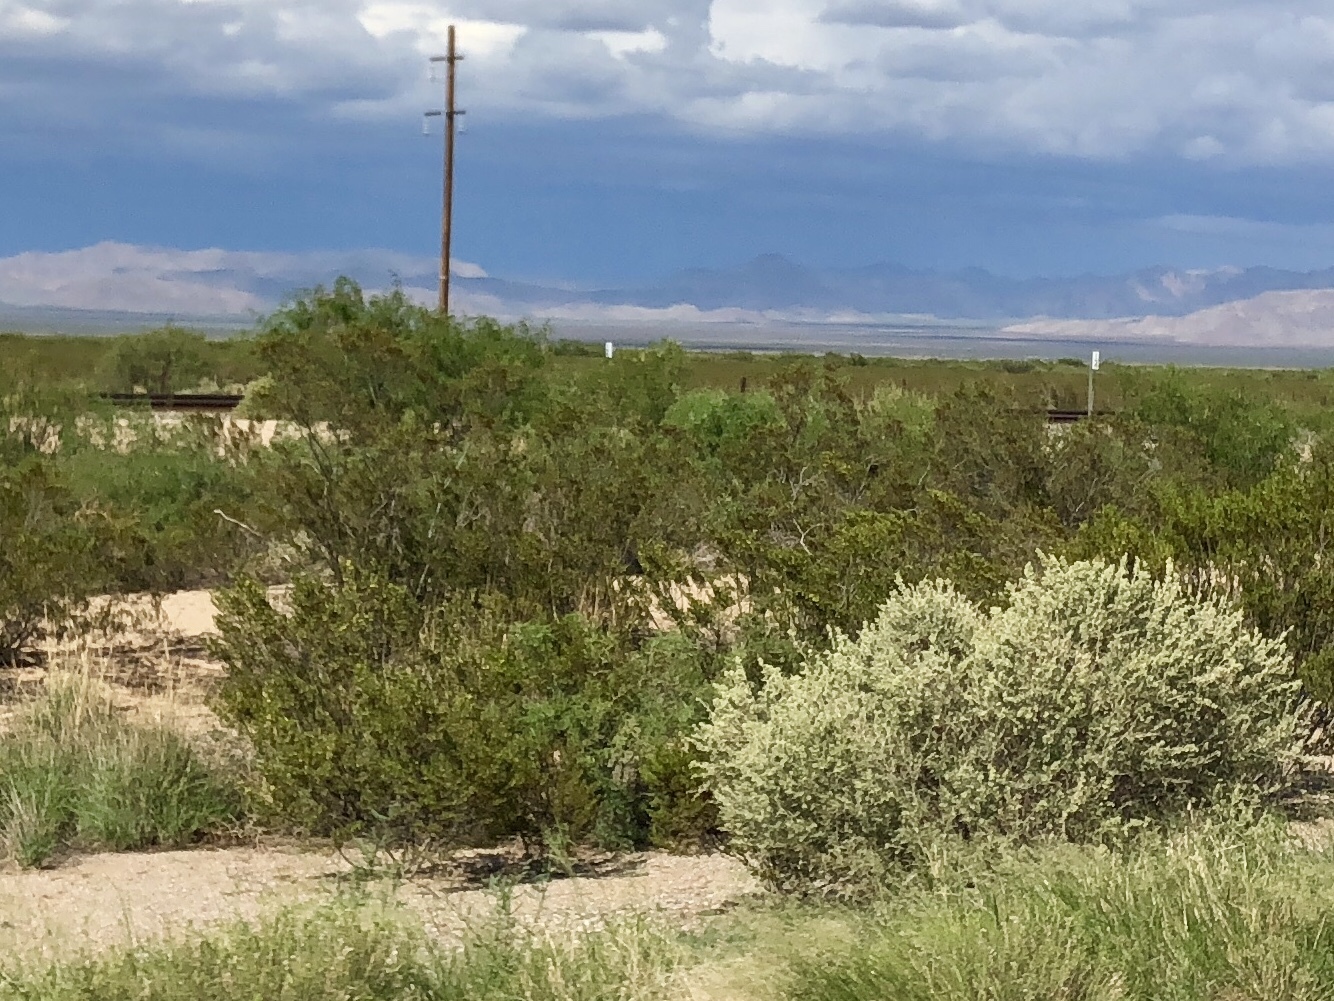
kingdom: Plantae
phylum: Tracheophyta
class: Magnoliopsida
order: Zygophyllales
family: Zygophyllaceae
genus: Larrea
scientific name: Larrea tridentata
